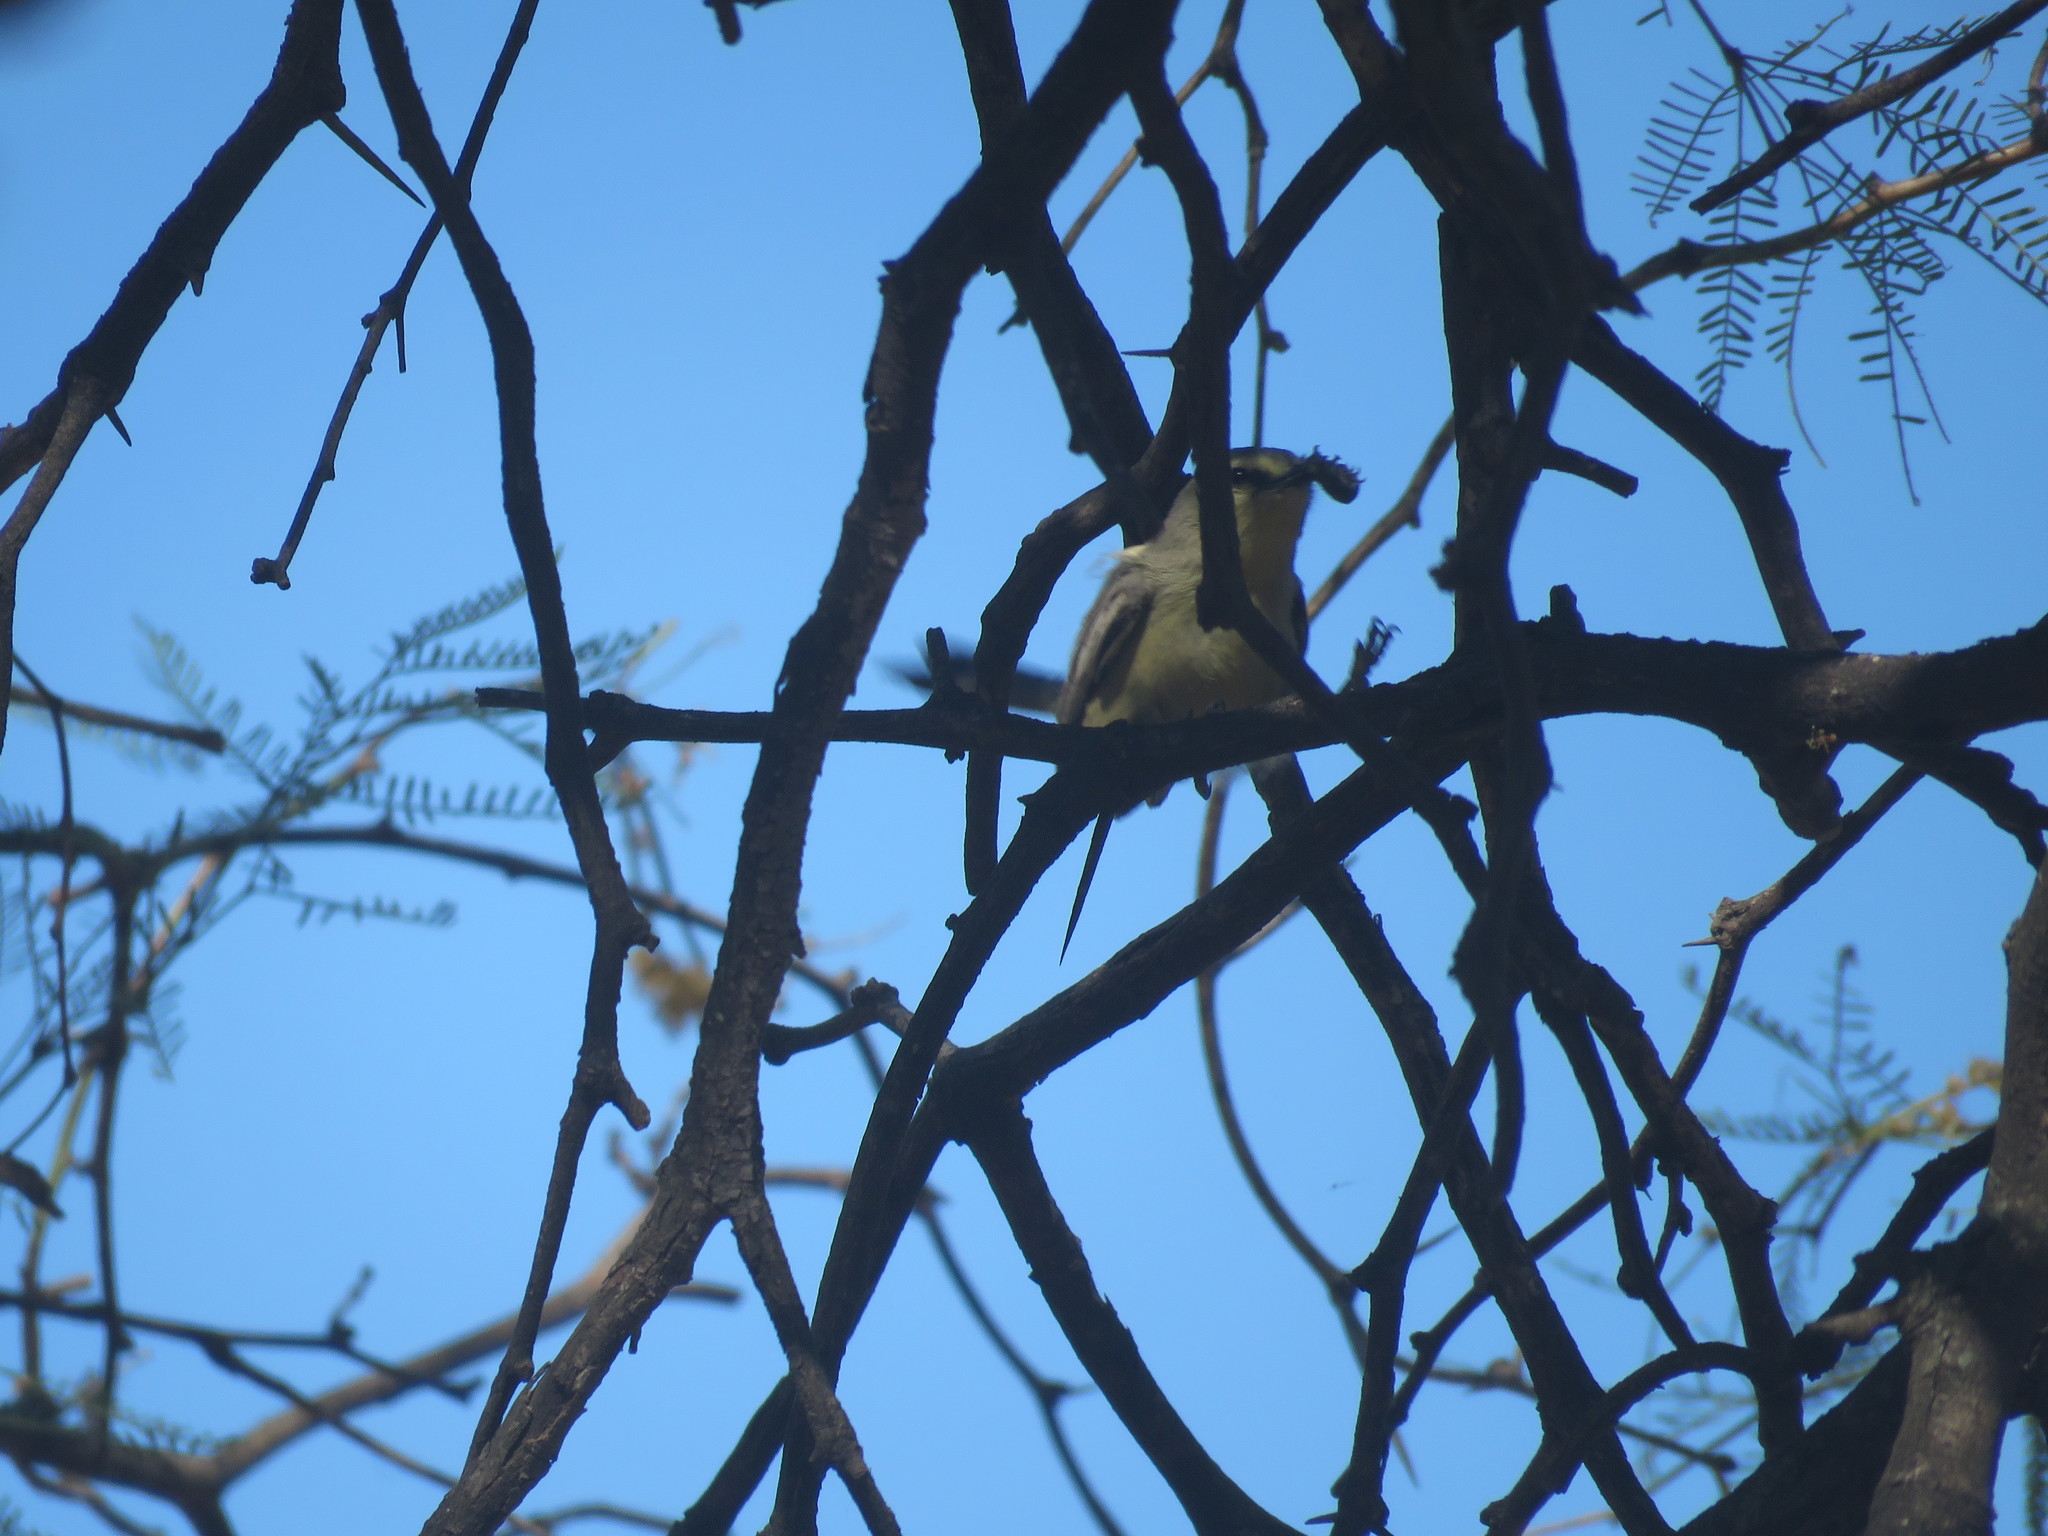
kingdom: Animalia
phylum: Chordata
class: Aves
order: Passeriformes
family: Tyrannidae
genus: Stigmatura
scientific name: Stigmatura budytoides
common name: Greater wagtail-tyrant
